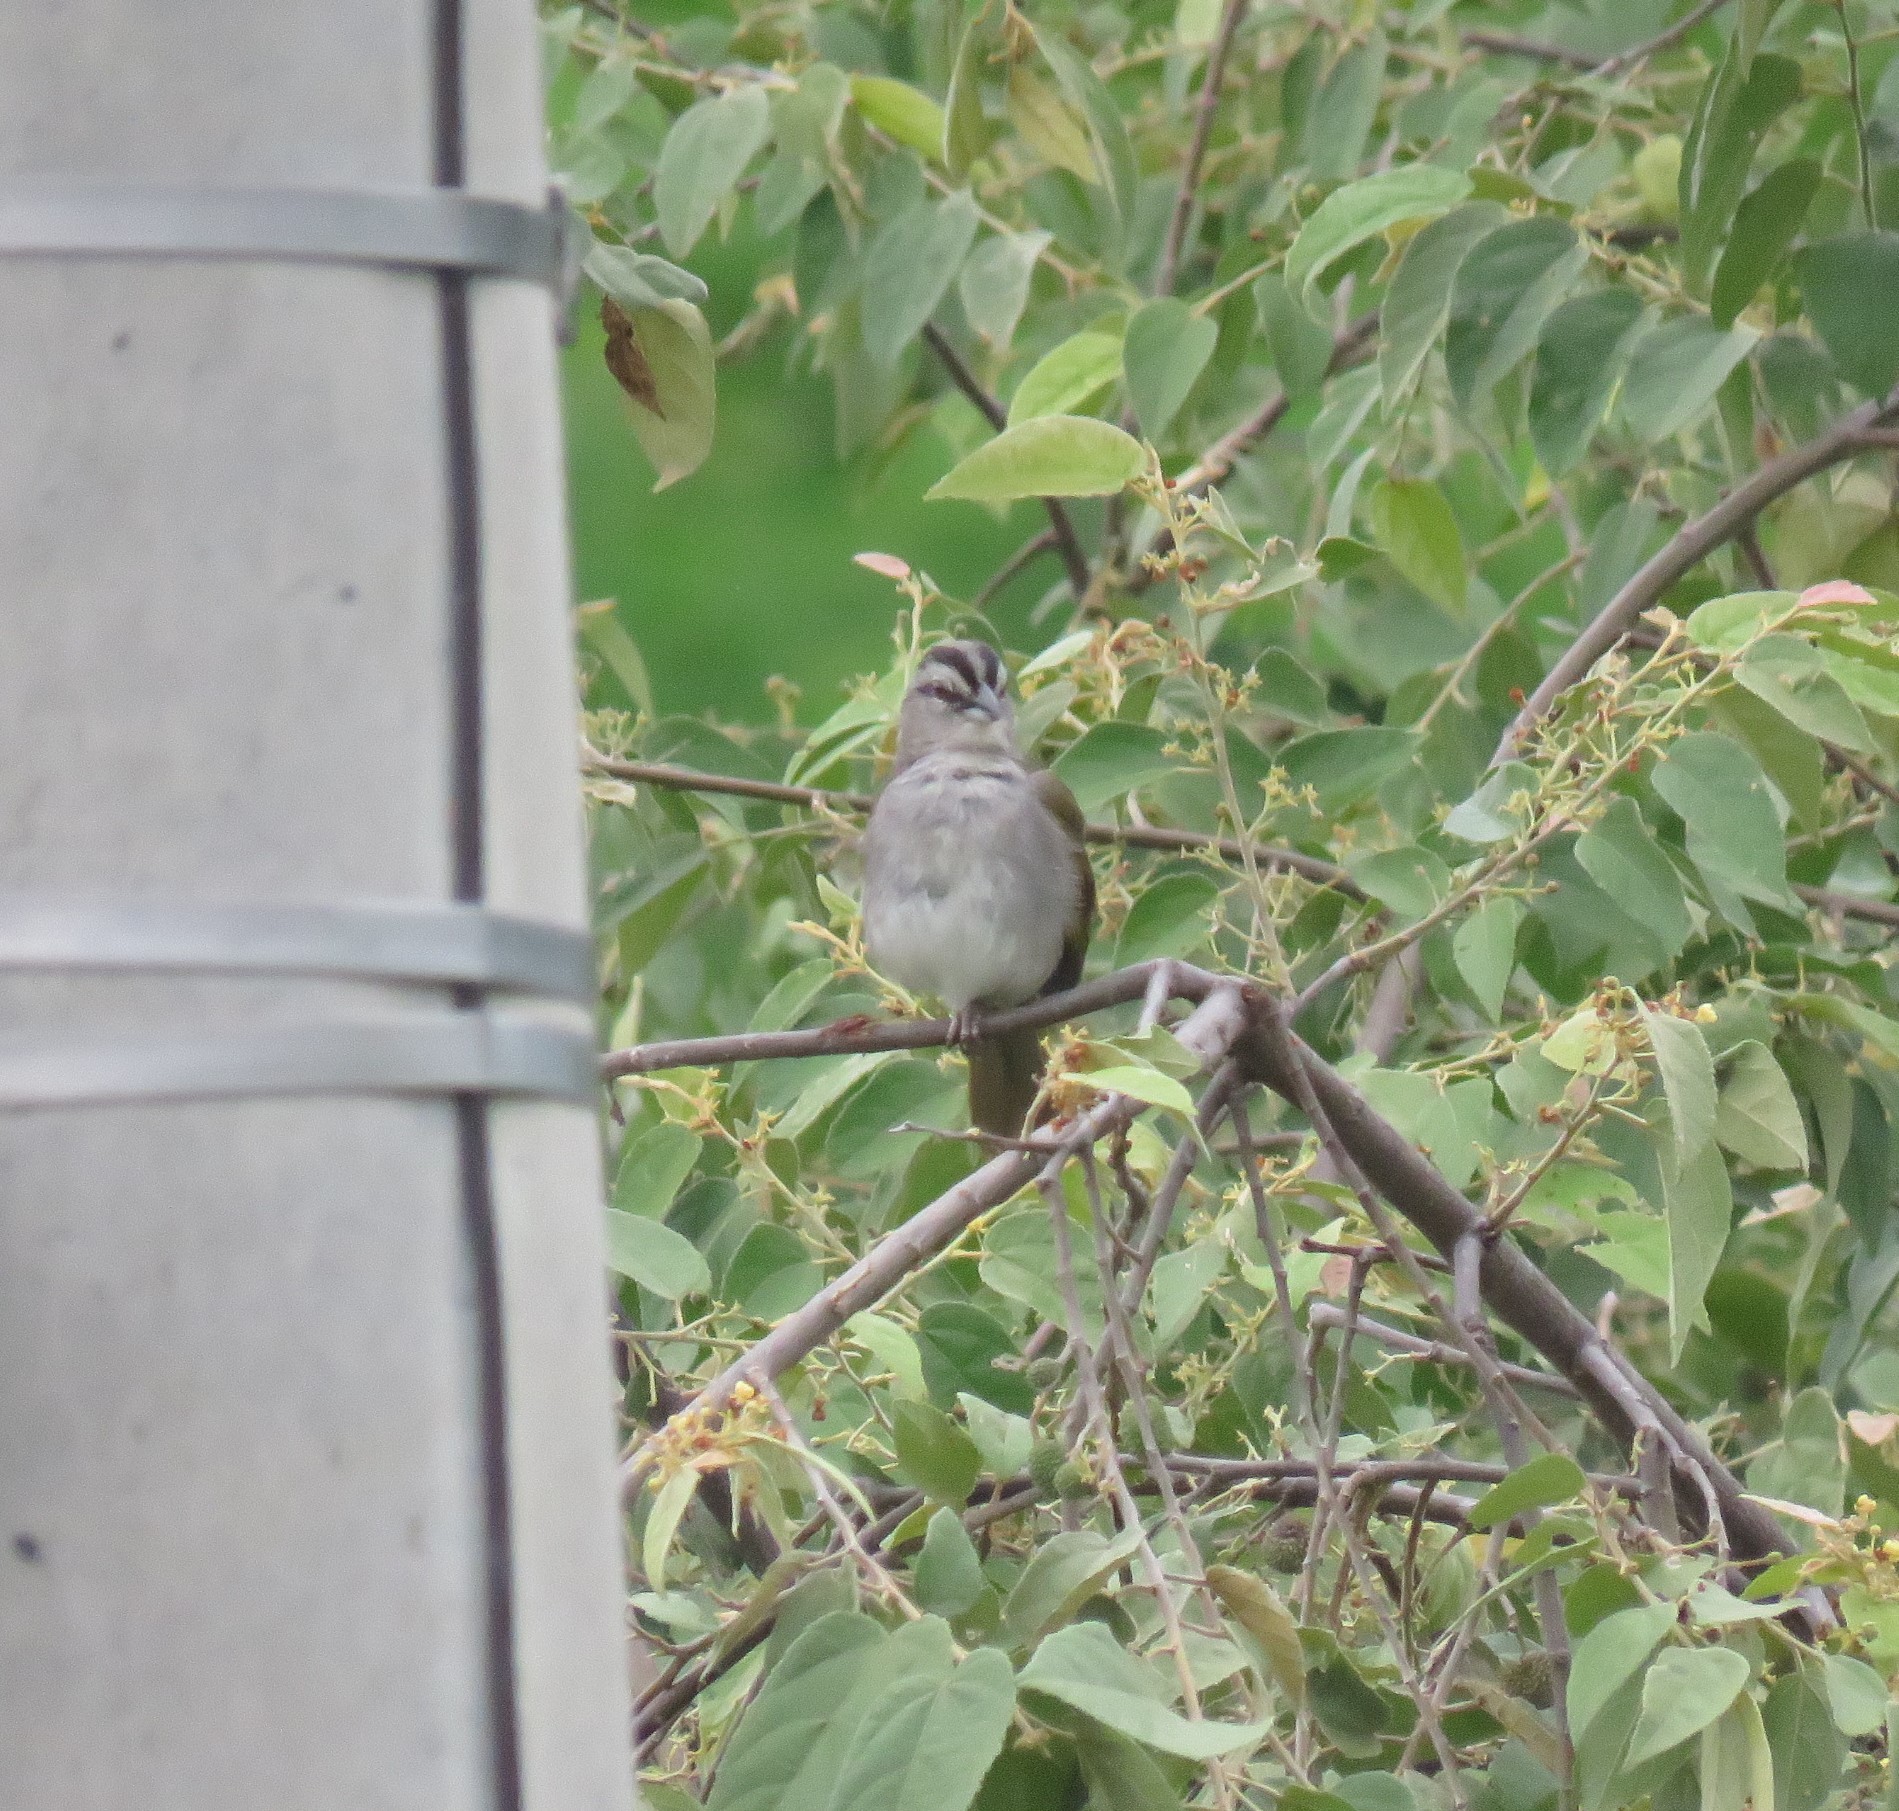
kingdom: Animalia
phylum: Chordata
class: Aves
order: Passeriformes
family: Passerellidae
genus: Arremonops
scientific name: Arremonops conirostris
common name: Black-striped sparrow
